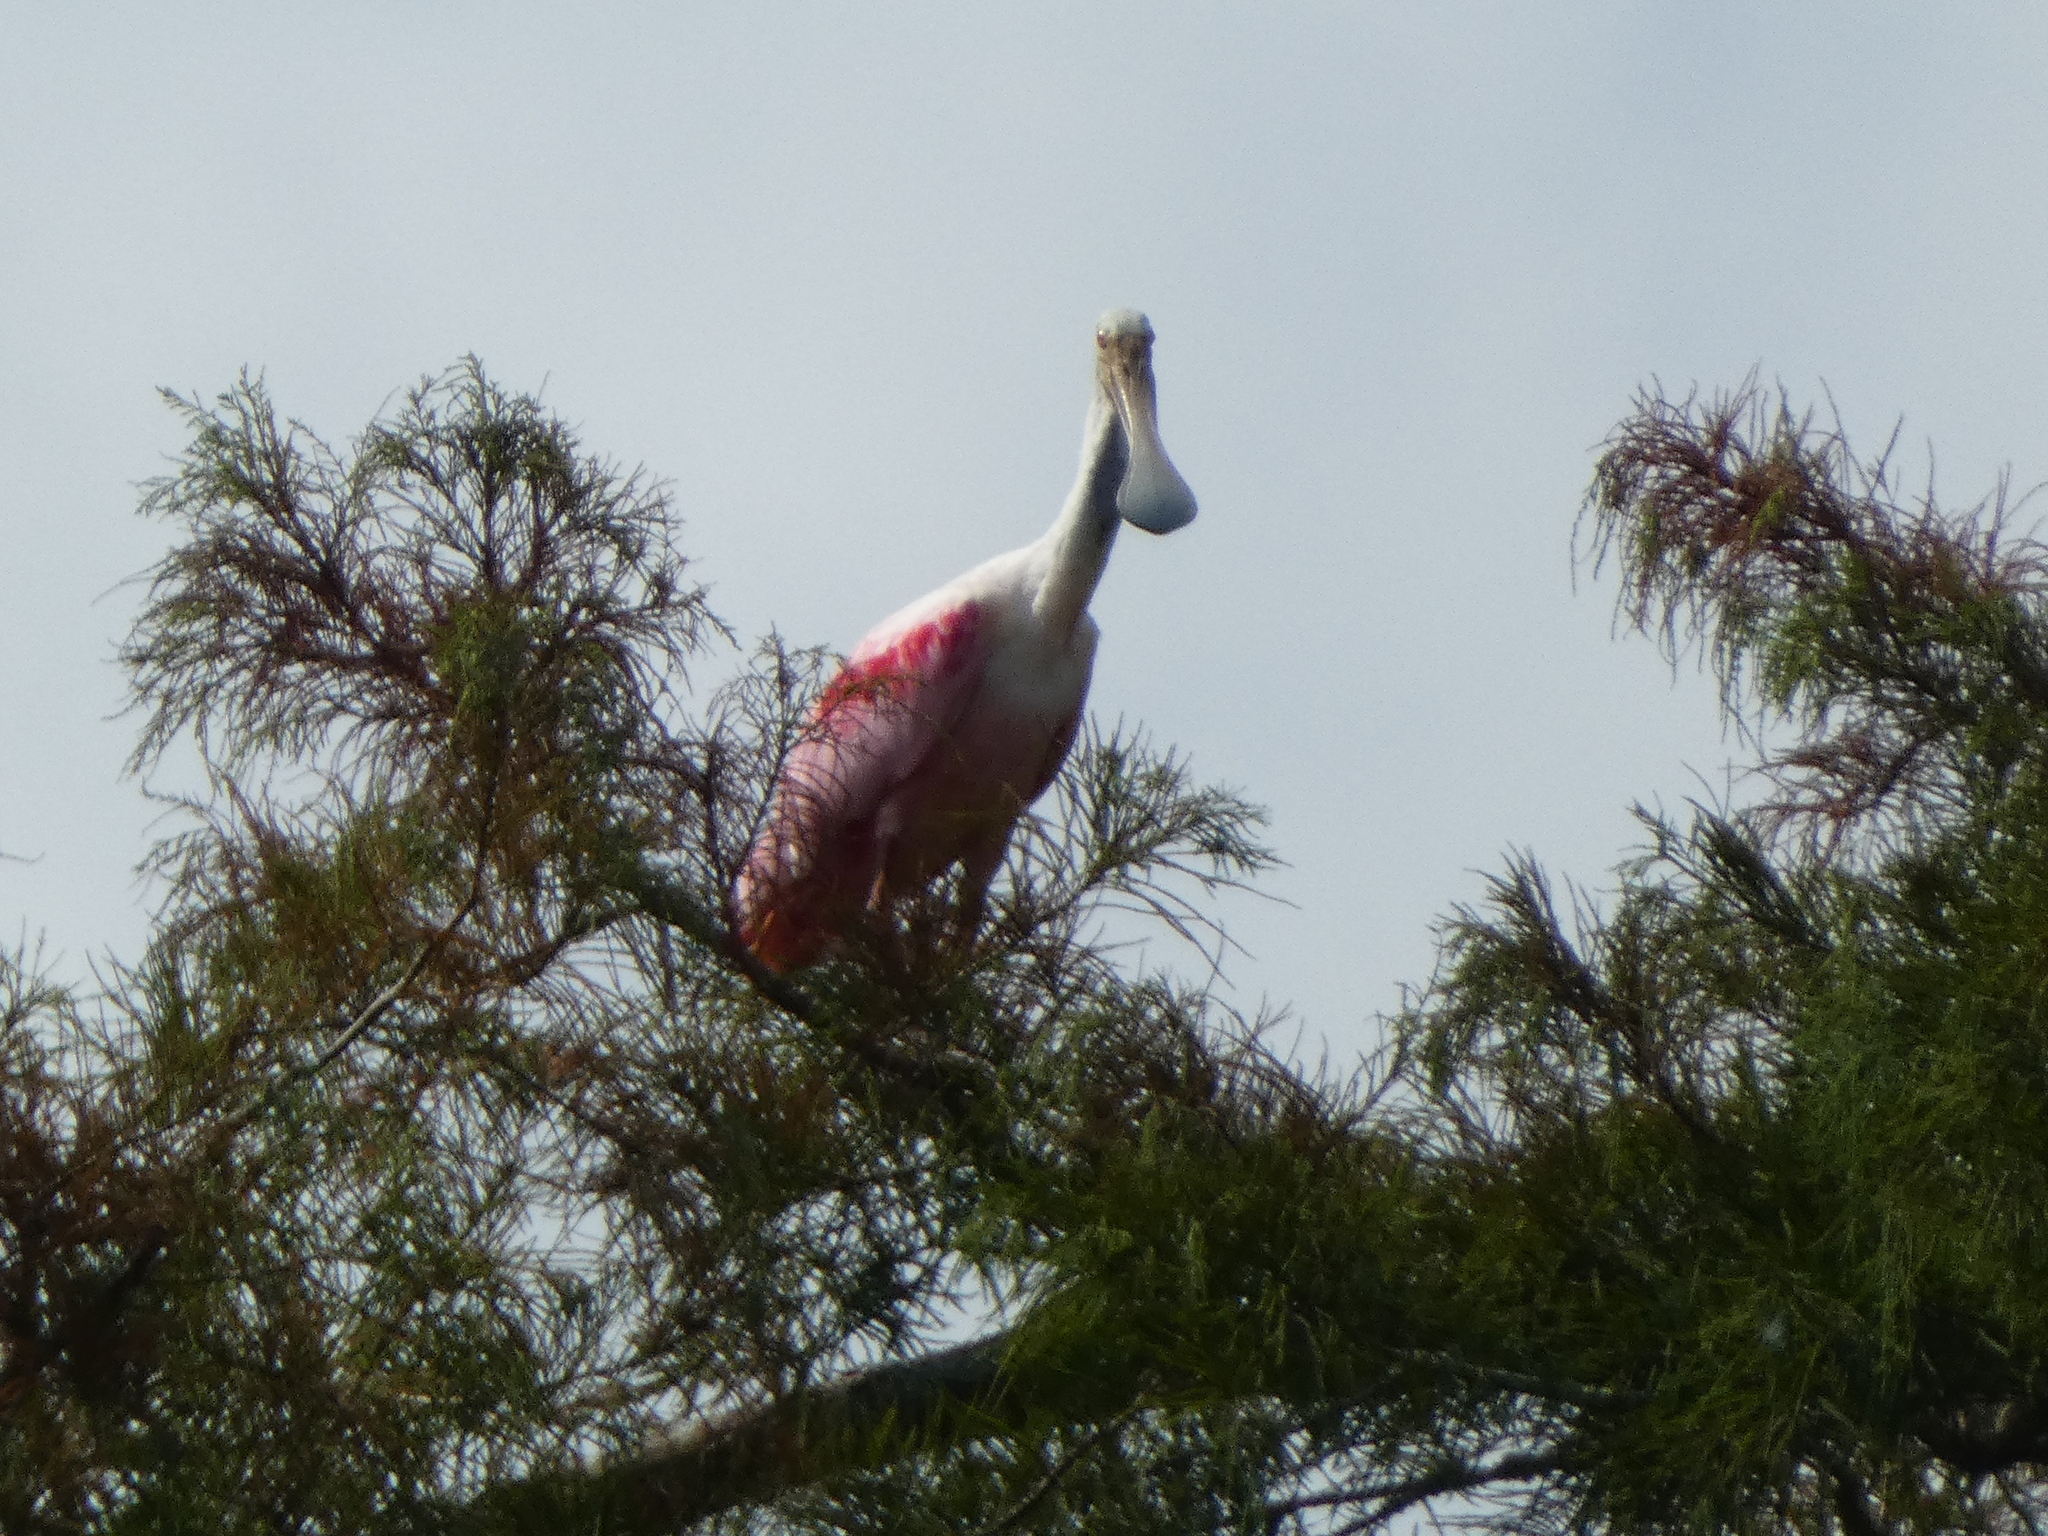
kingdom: Animalia
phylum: Chordata
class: Aves
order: Pelecaniformes
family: Threskiornithidae
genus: Platalea
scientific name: Platalea ajaja
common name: Roseate spoonbill
